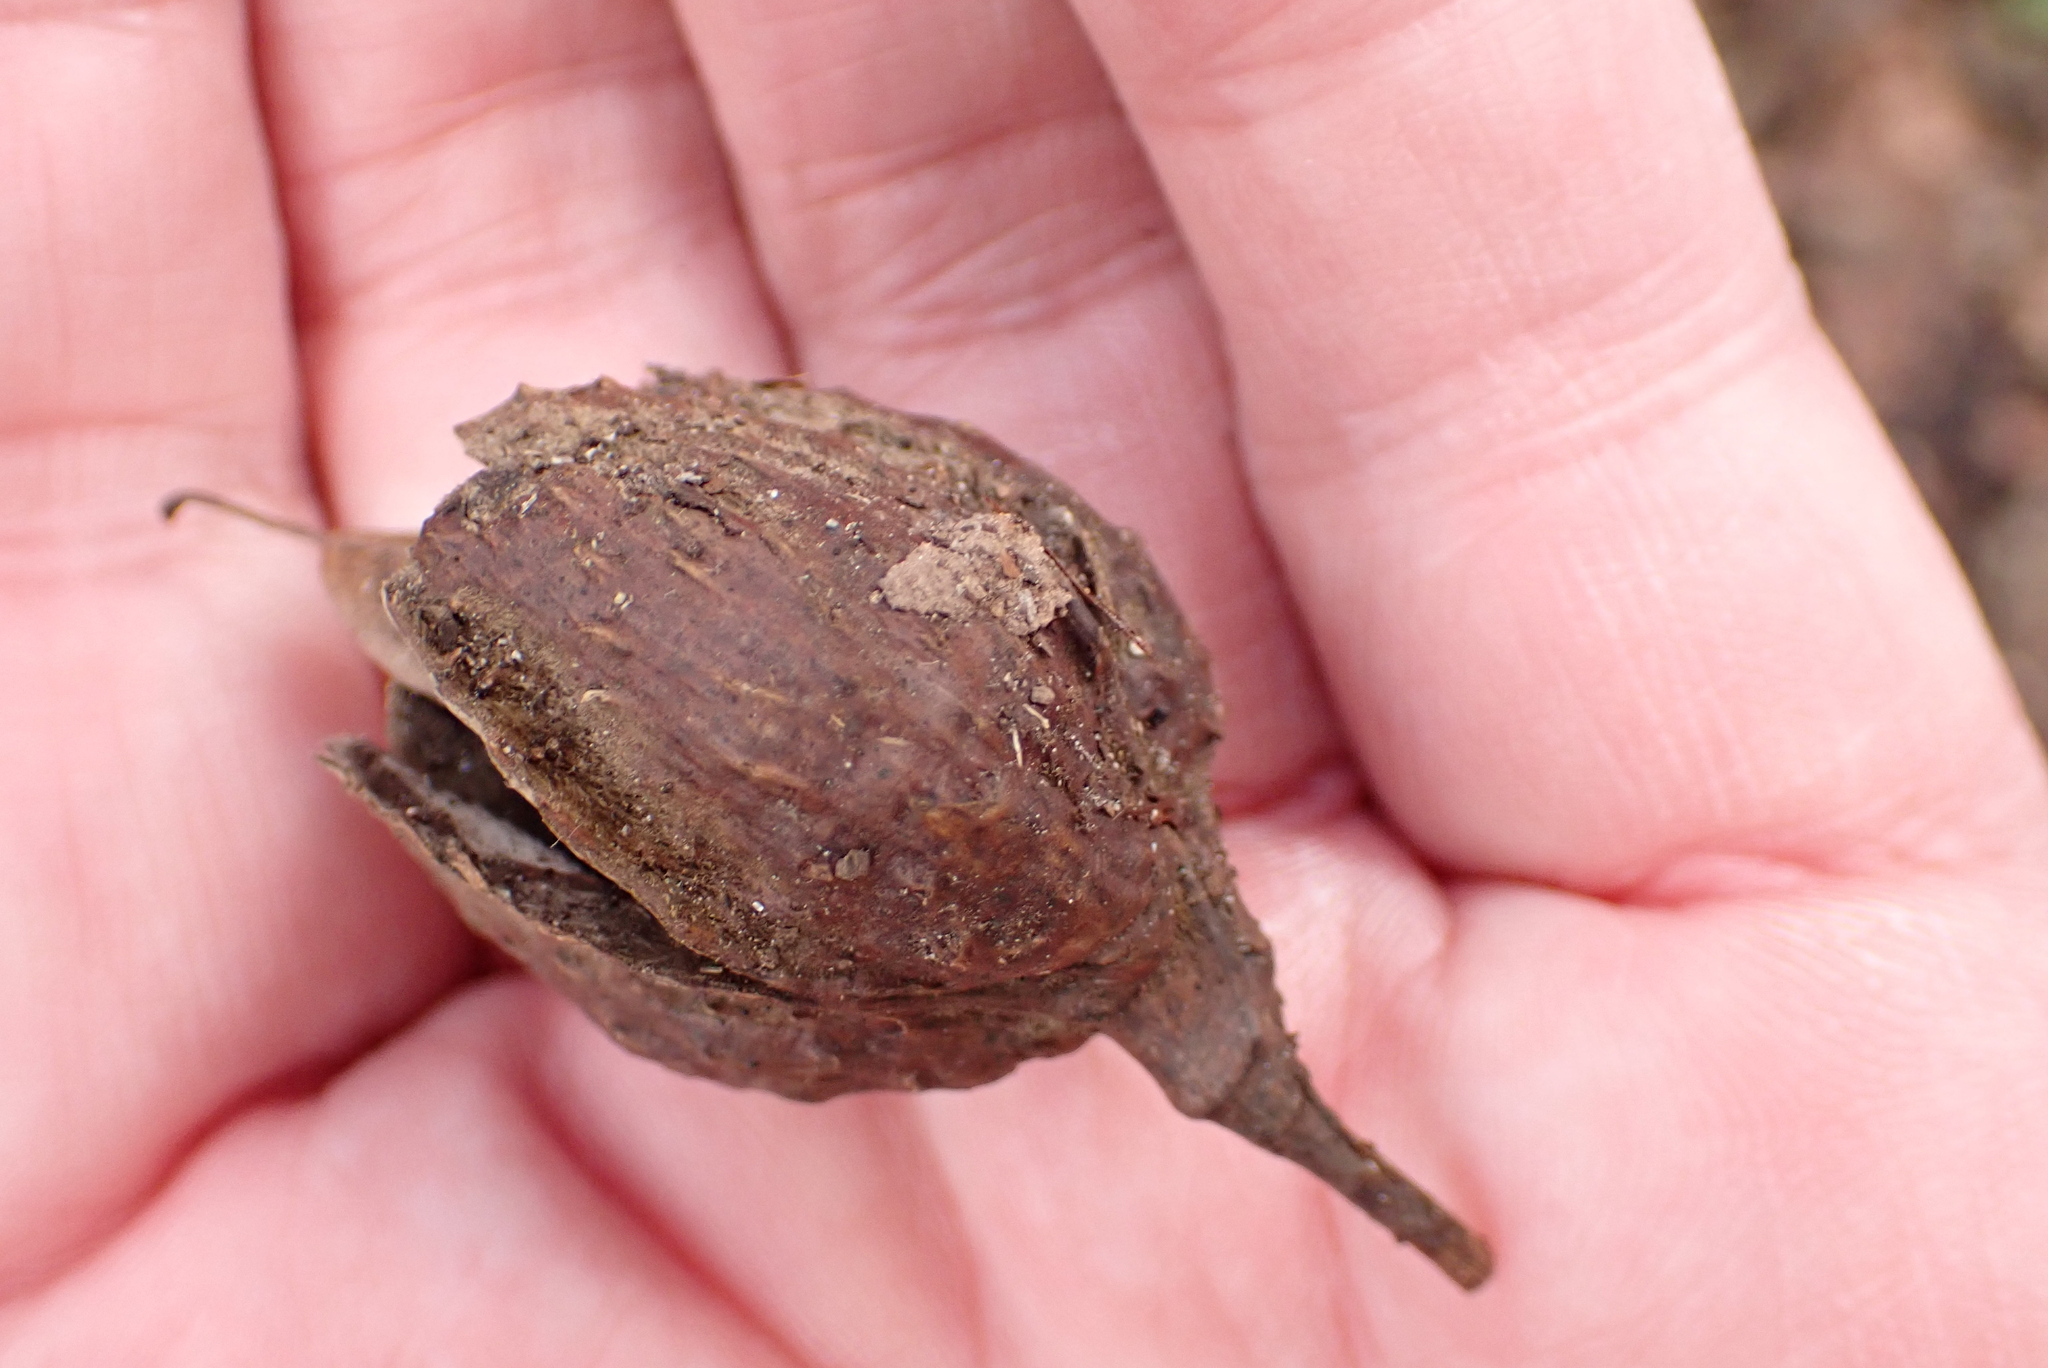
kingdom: Plantae
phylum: Tracheophyta
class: Magnoliopsida
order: Fagales
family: Fagaceae
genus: Fagus
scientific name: Fagus sylvatica
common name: Beech
